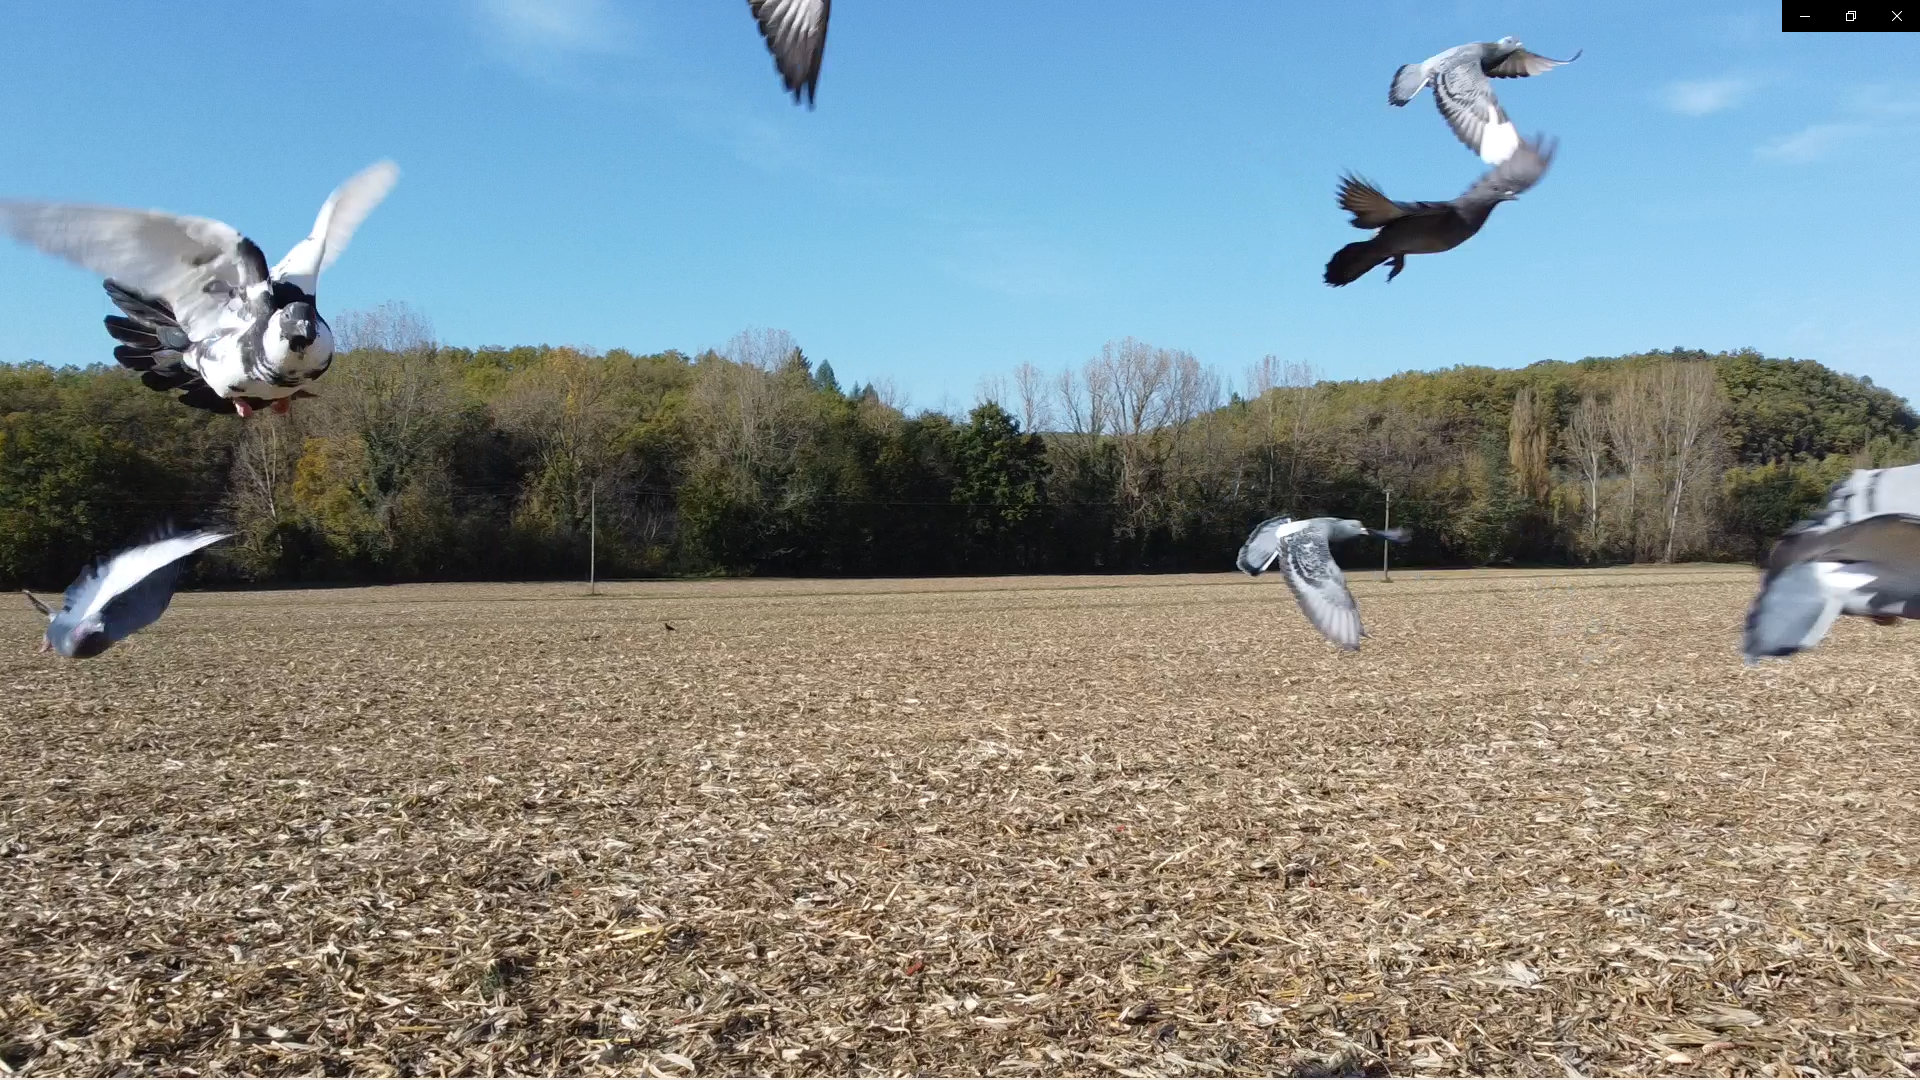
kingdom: Animalia
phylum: Chordata
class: Aves
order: Columbiformes
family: Columbidae
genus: Columba
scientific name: Columba livia
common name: Rock pigeon
